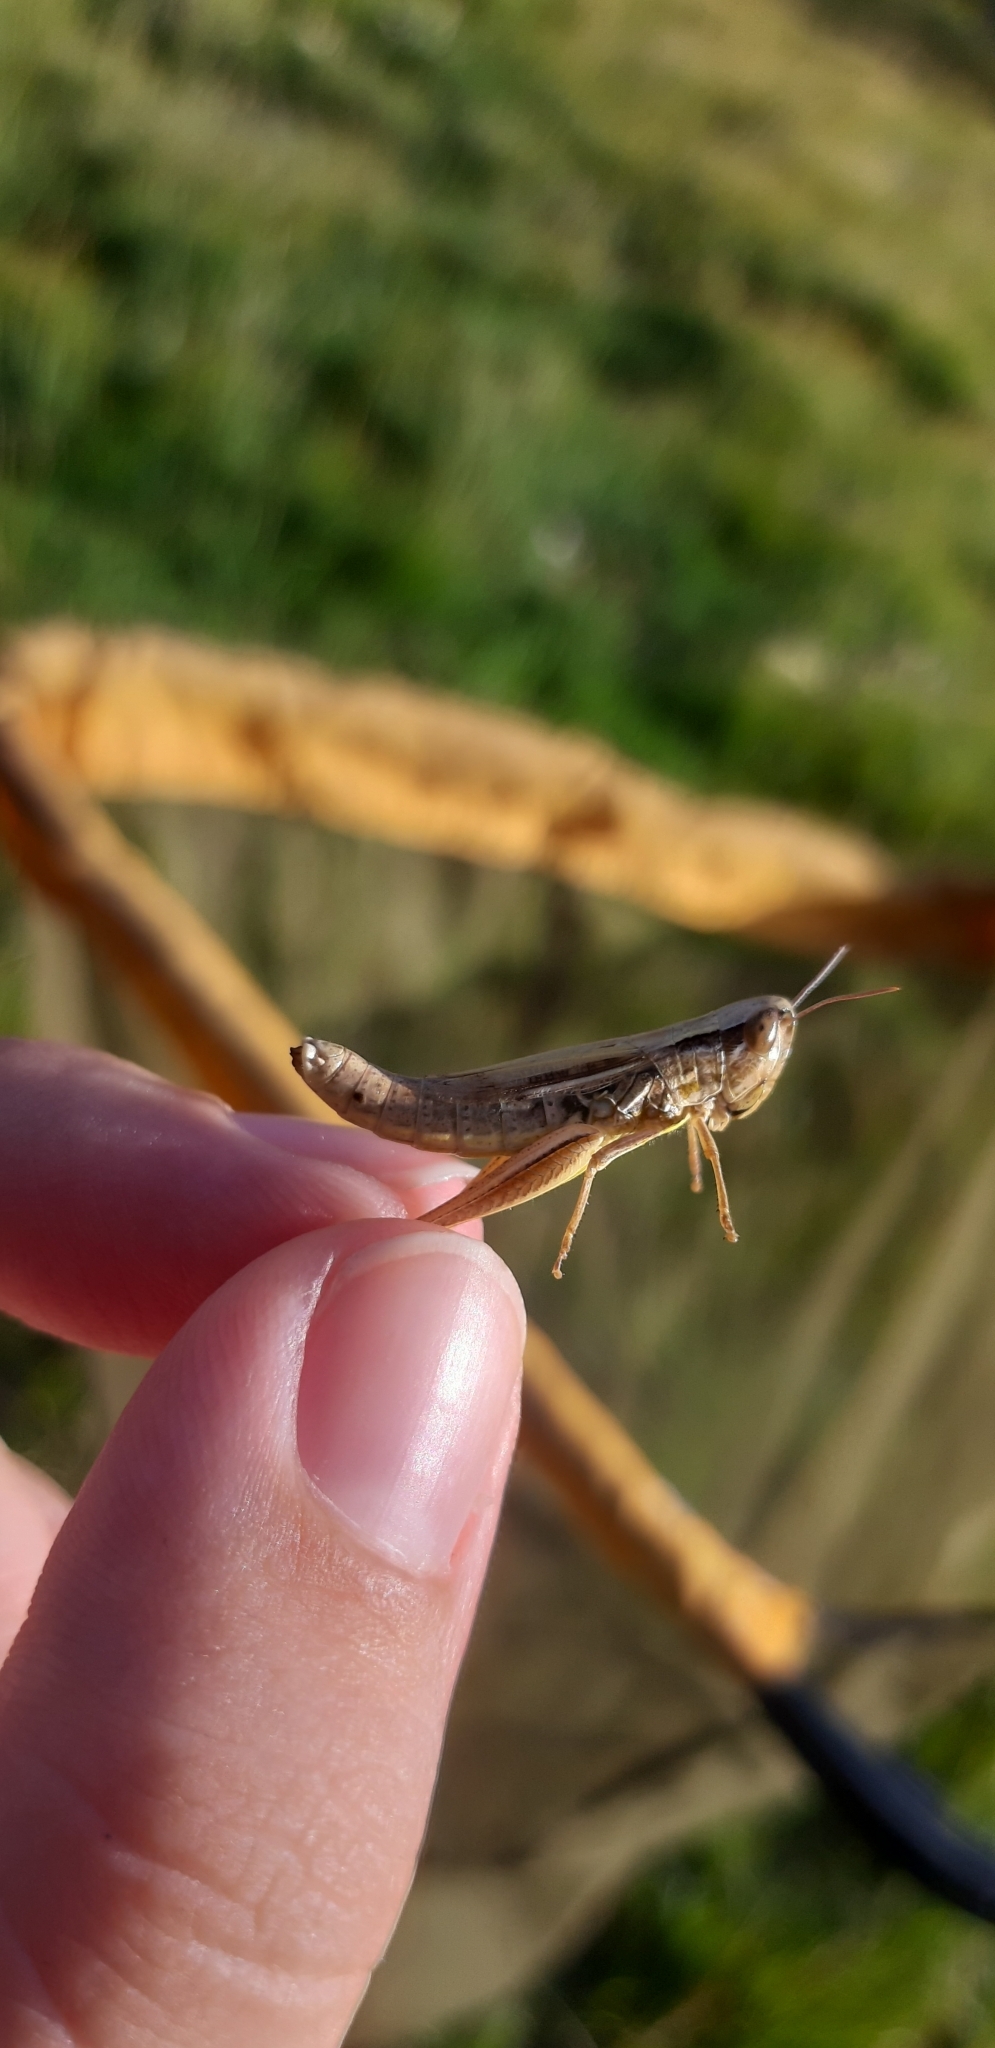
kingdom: Animalia
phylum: Arthropoda
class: Insecta
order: Orthoptera
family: Acrididae
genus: Euchorthippus
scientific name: Euchorthippus declivus
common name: Common straw grasshopper
